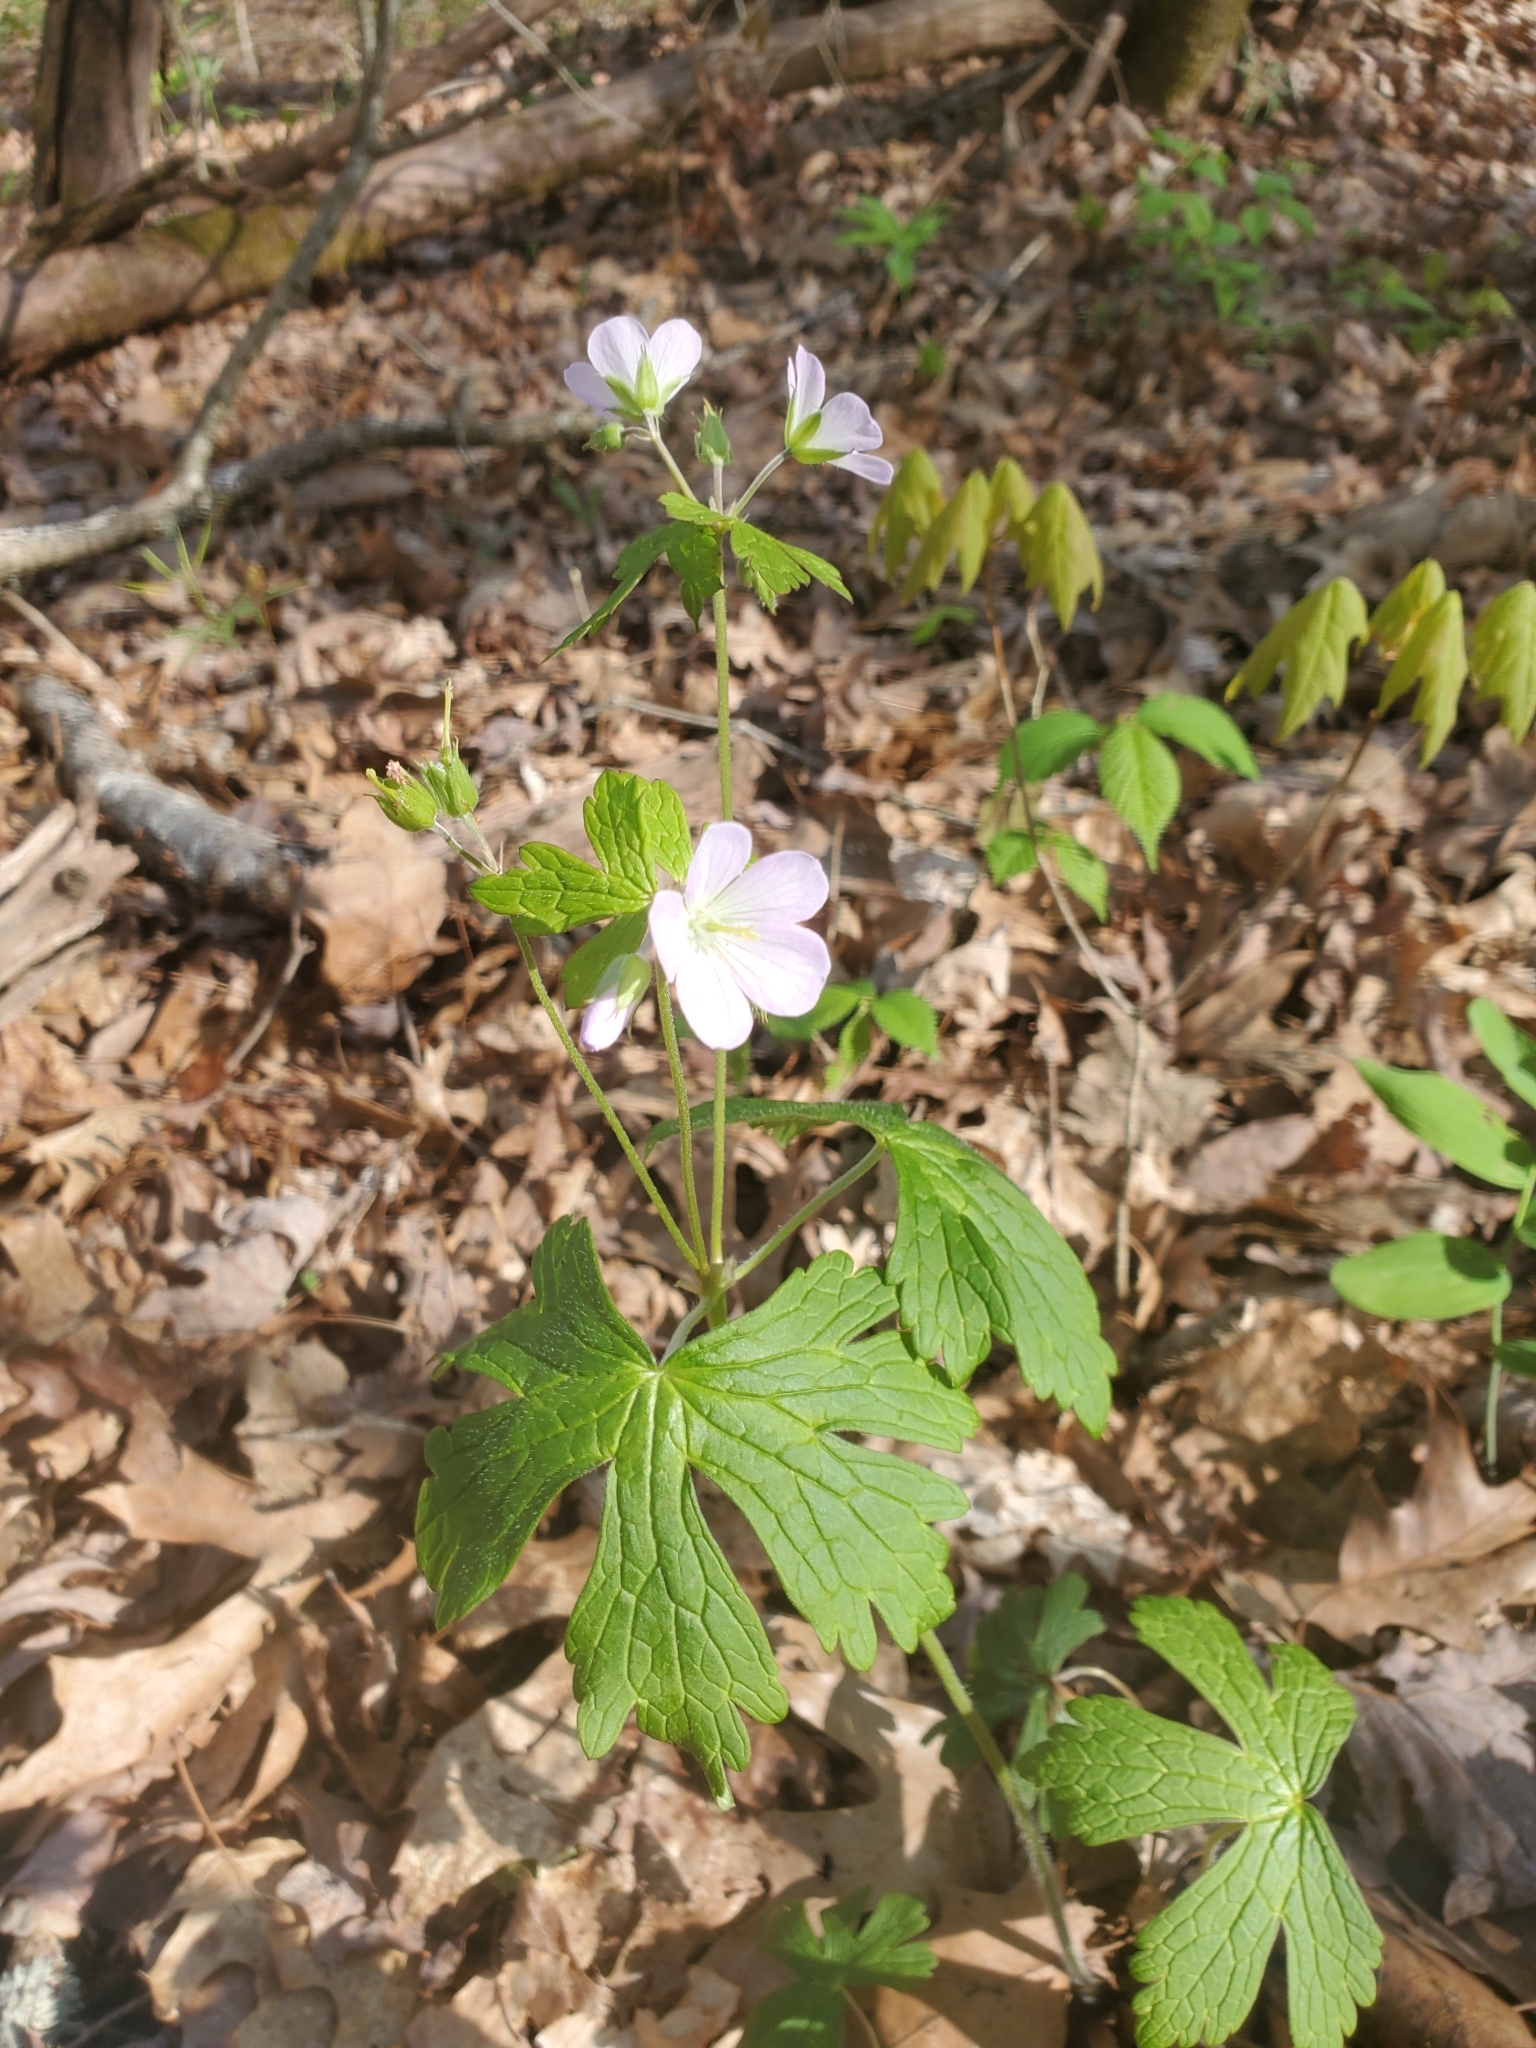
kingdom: Plantae
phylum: Tracheophyta
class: Magnoliopsida
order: Geraniales
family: Geraniaceae
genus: Geranium
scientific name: Geranium maculatum
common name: Spotted geranium
